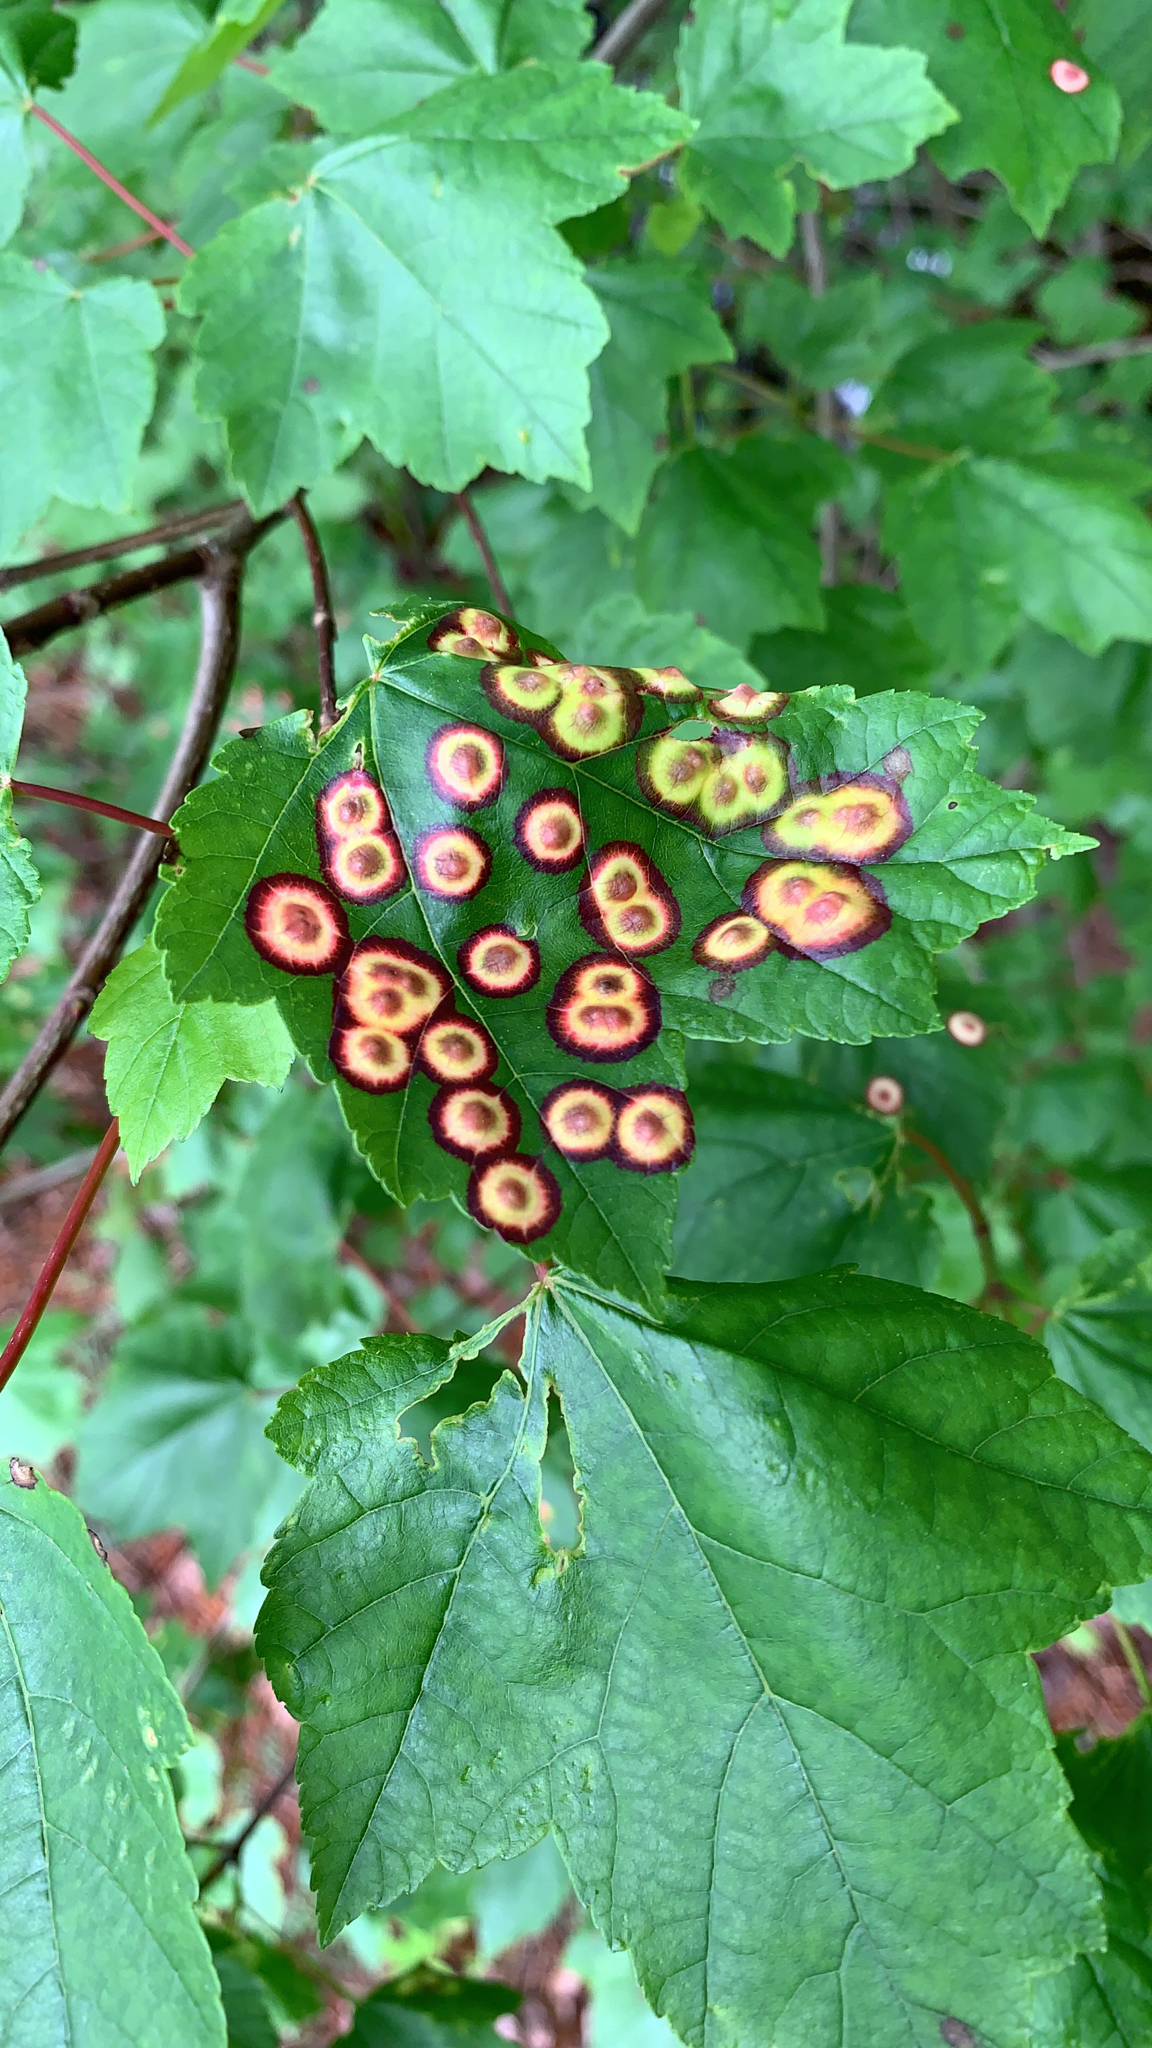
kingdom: Animalia
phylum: Arthropoda
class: Insecta
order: Diptera
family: Cecidomyiidae
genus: Acericecis
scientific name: Acericecis ocellaris
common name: Ocellate gall midge
